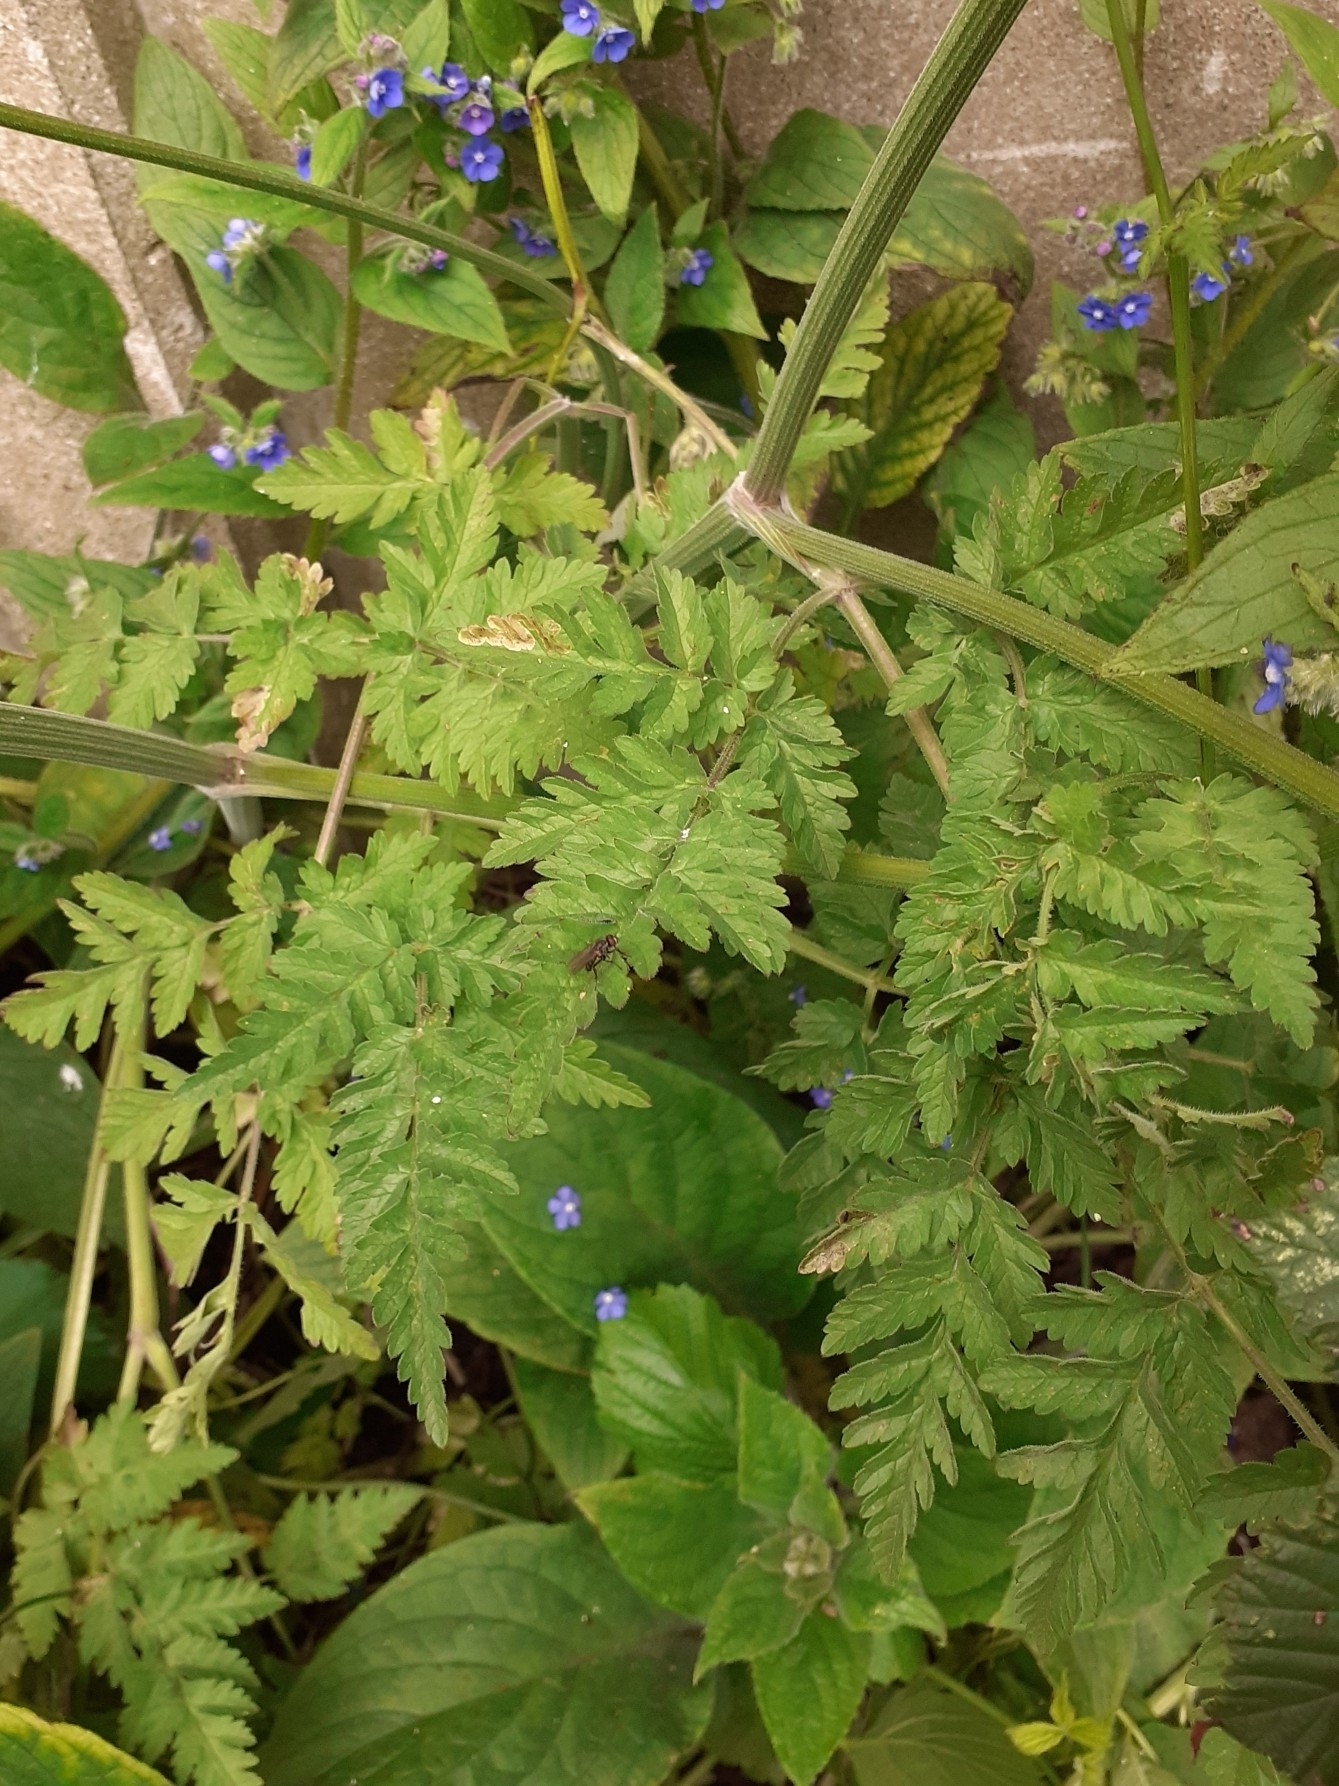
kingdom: Plantae
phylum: Tracheophyta
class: Magnoliopsida
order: Apiales
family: Apiaceae
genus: Anthriscus
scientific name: Anthriscus sylvestris
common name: Cow parsley
